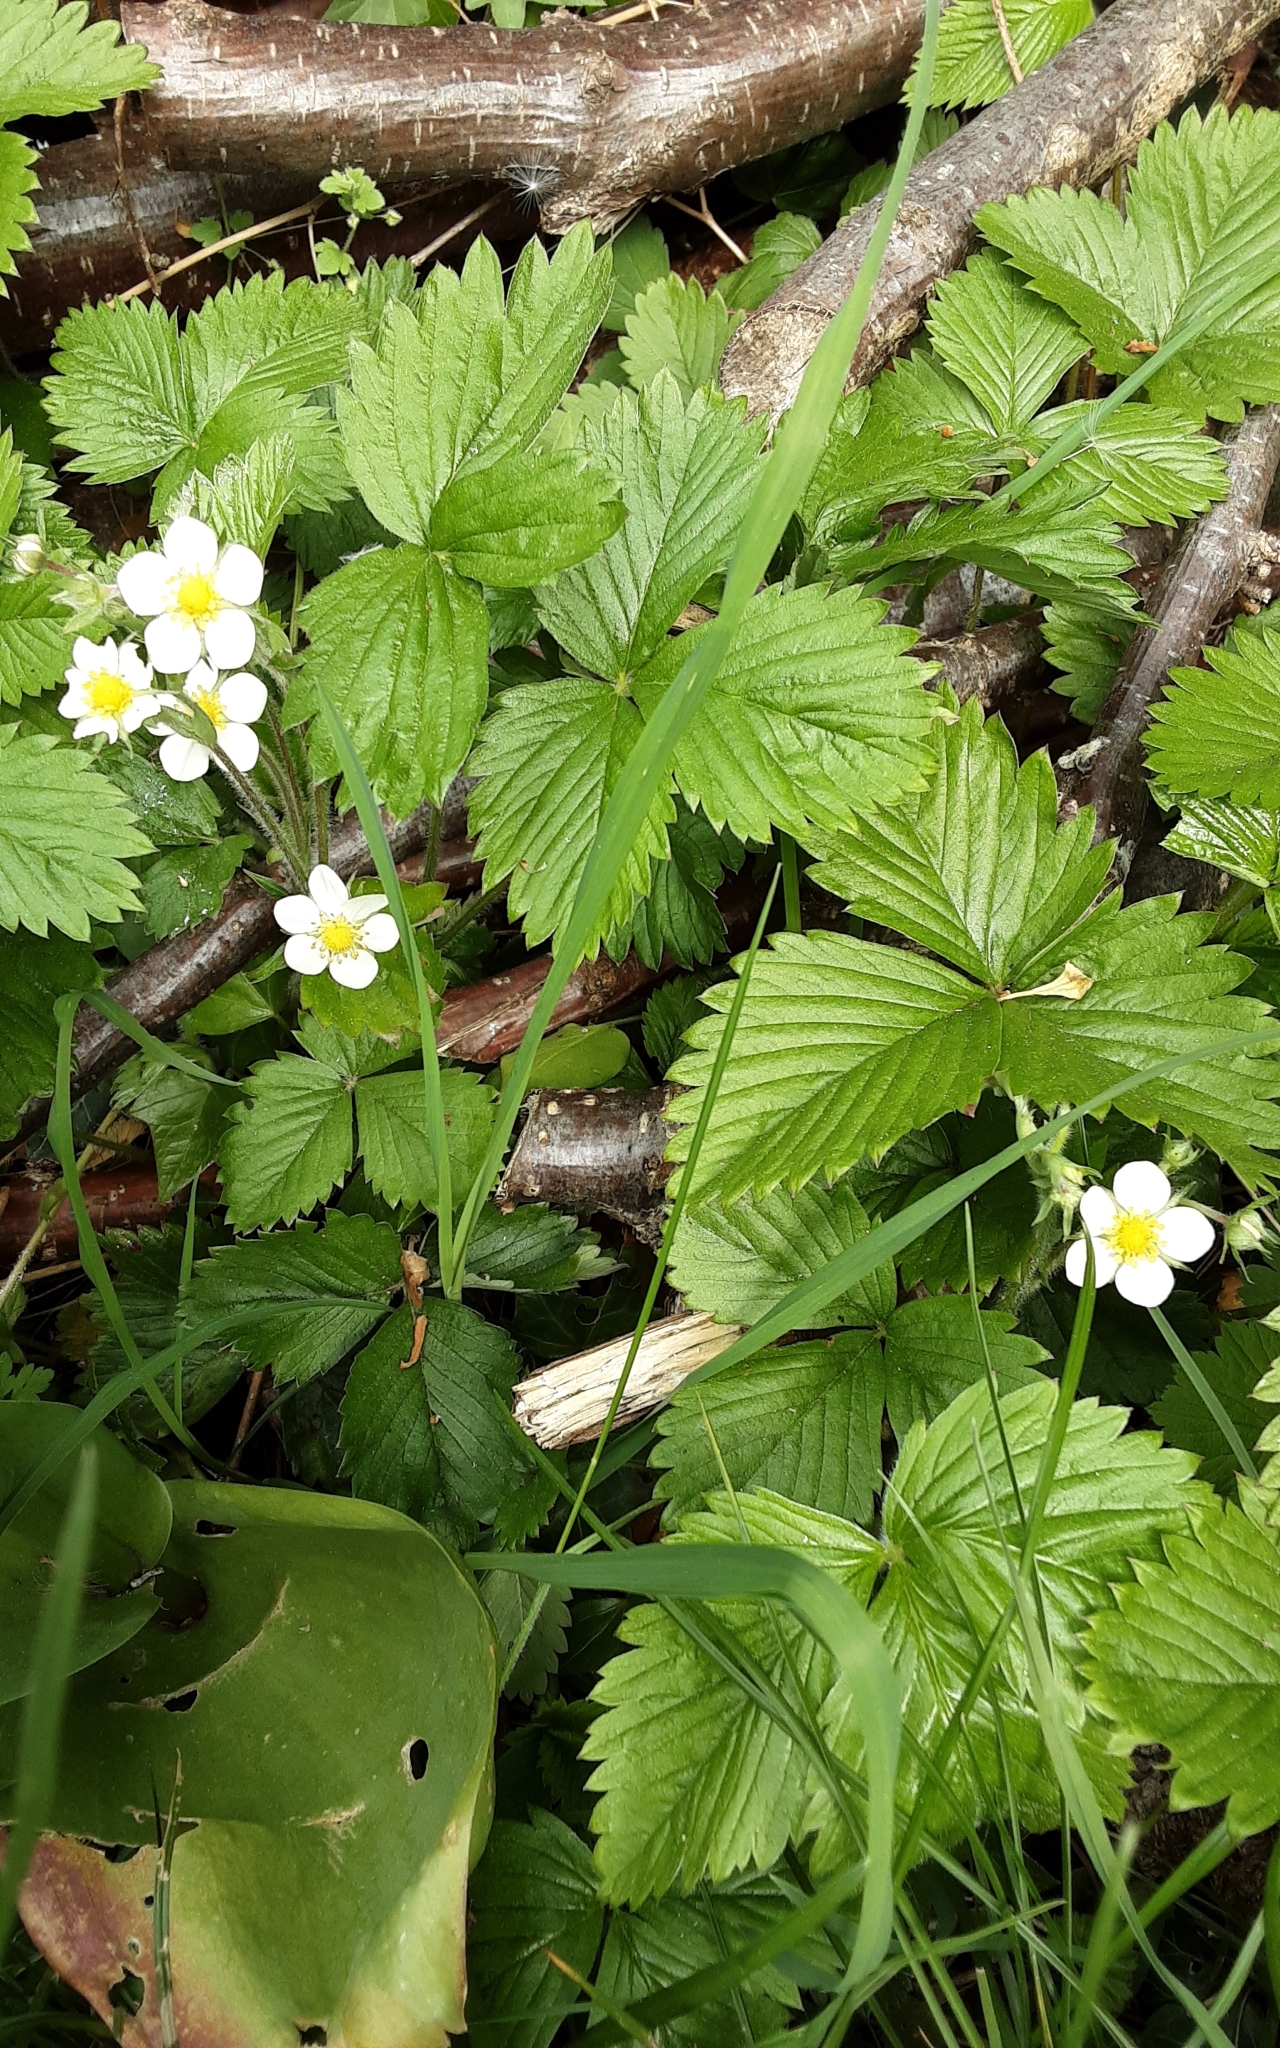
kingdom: Plantae
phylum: Tracheophyta
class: Magnoliopsida
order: Rosales
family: Rosaceae
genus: Fragaria
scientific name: Fragaria vesca
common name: Wild strawberry
